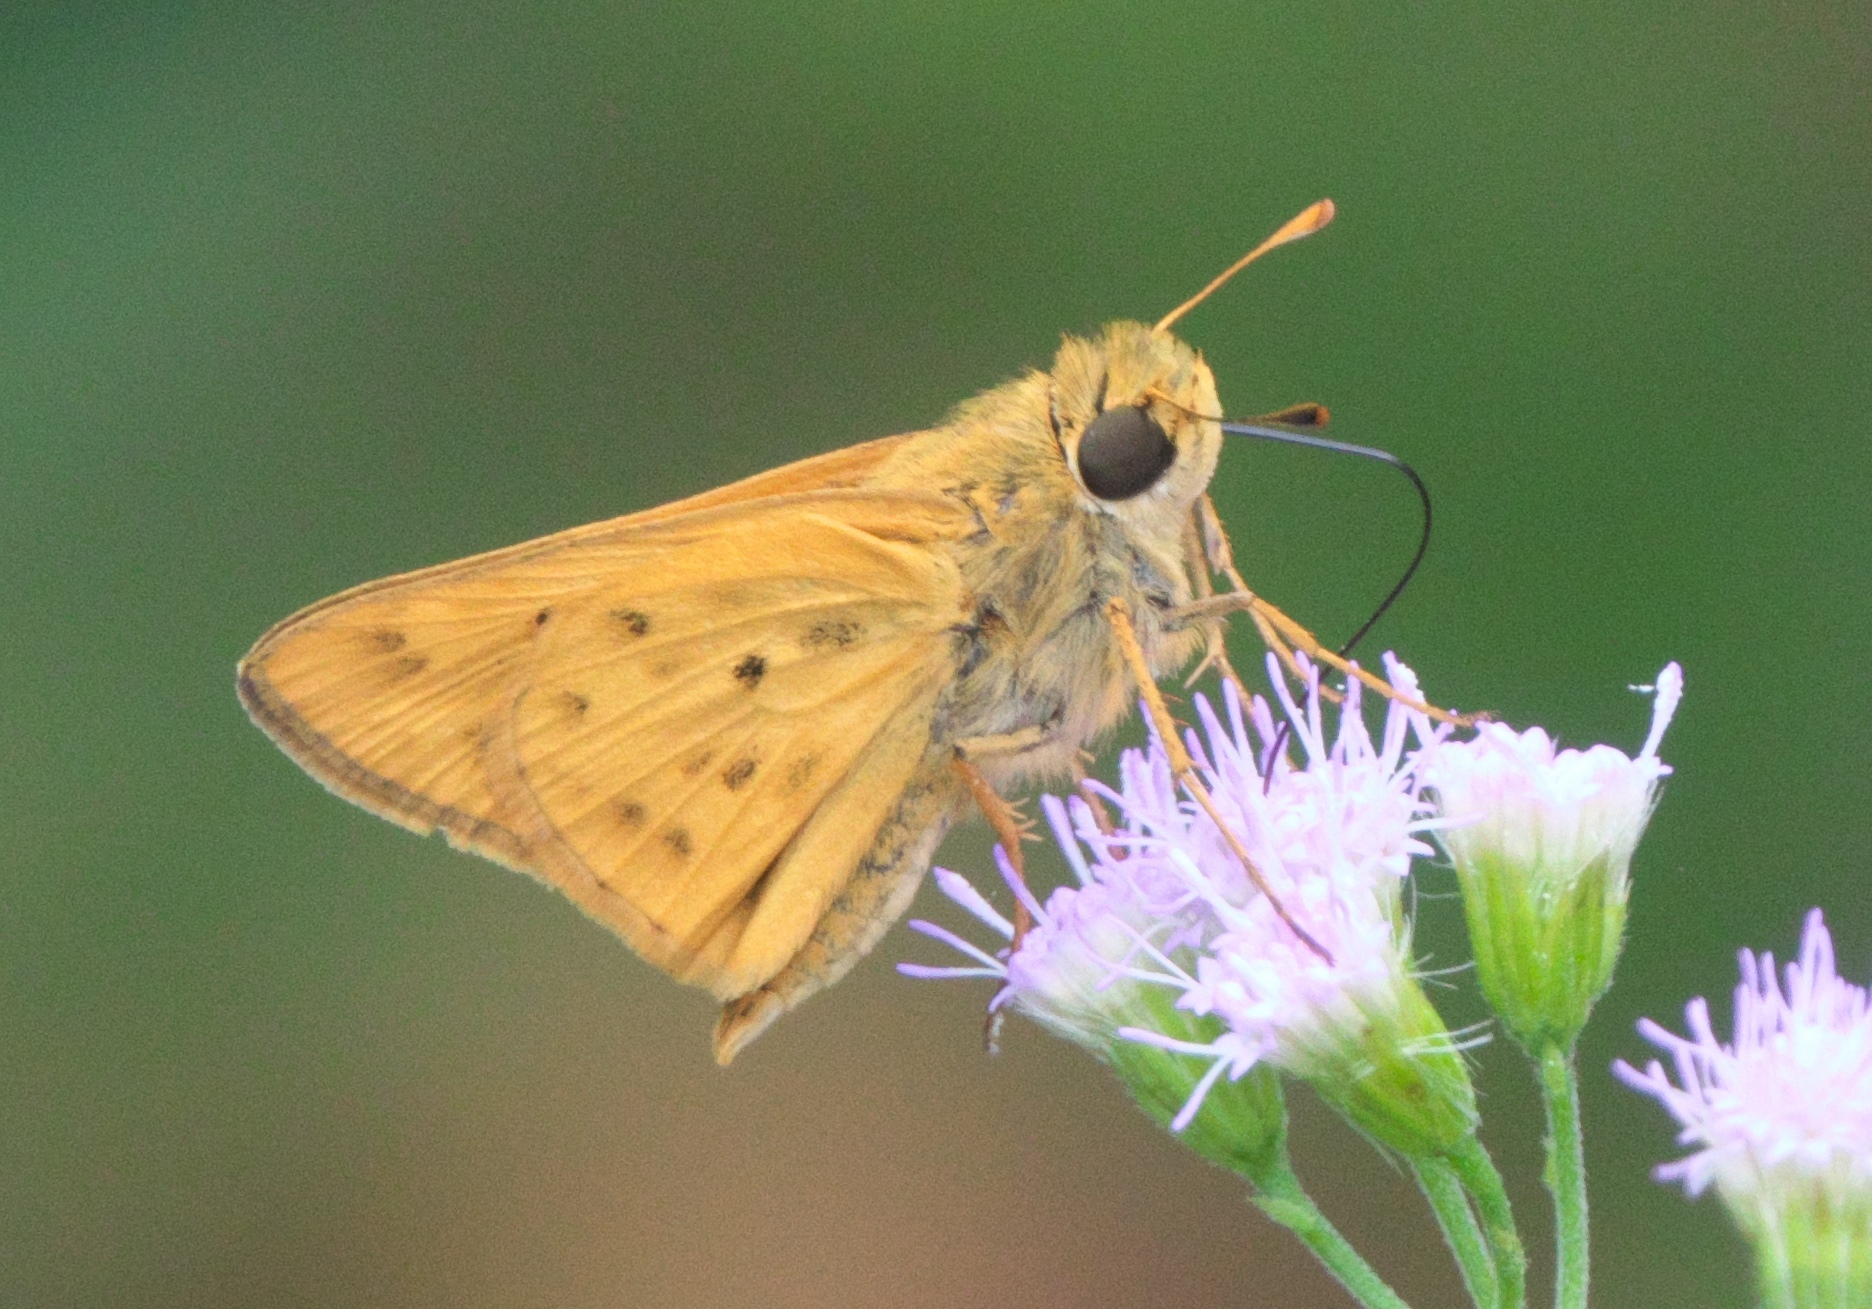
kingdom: Animalia
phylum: Arthropoda
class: Insecta
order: Lepidoptera
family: Hesperiidae
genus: Hylephila
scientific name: Hylephila phyleus
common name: Fiery skipper
